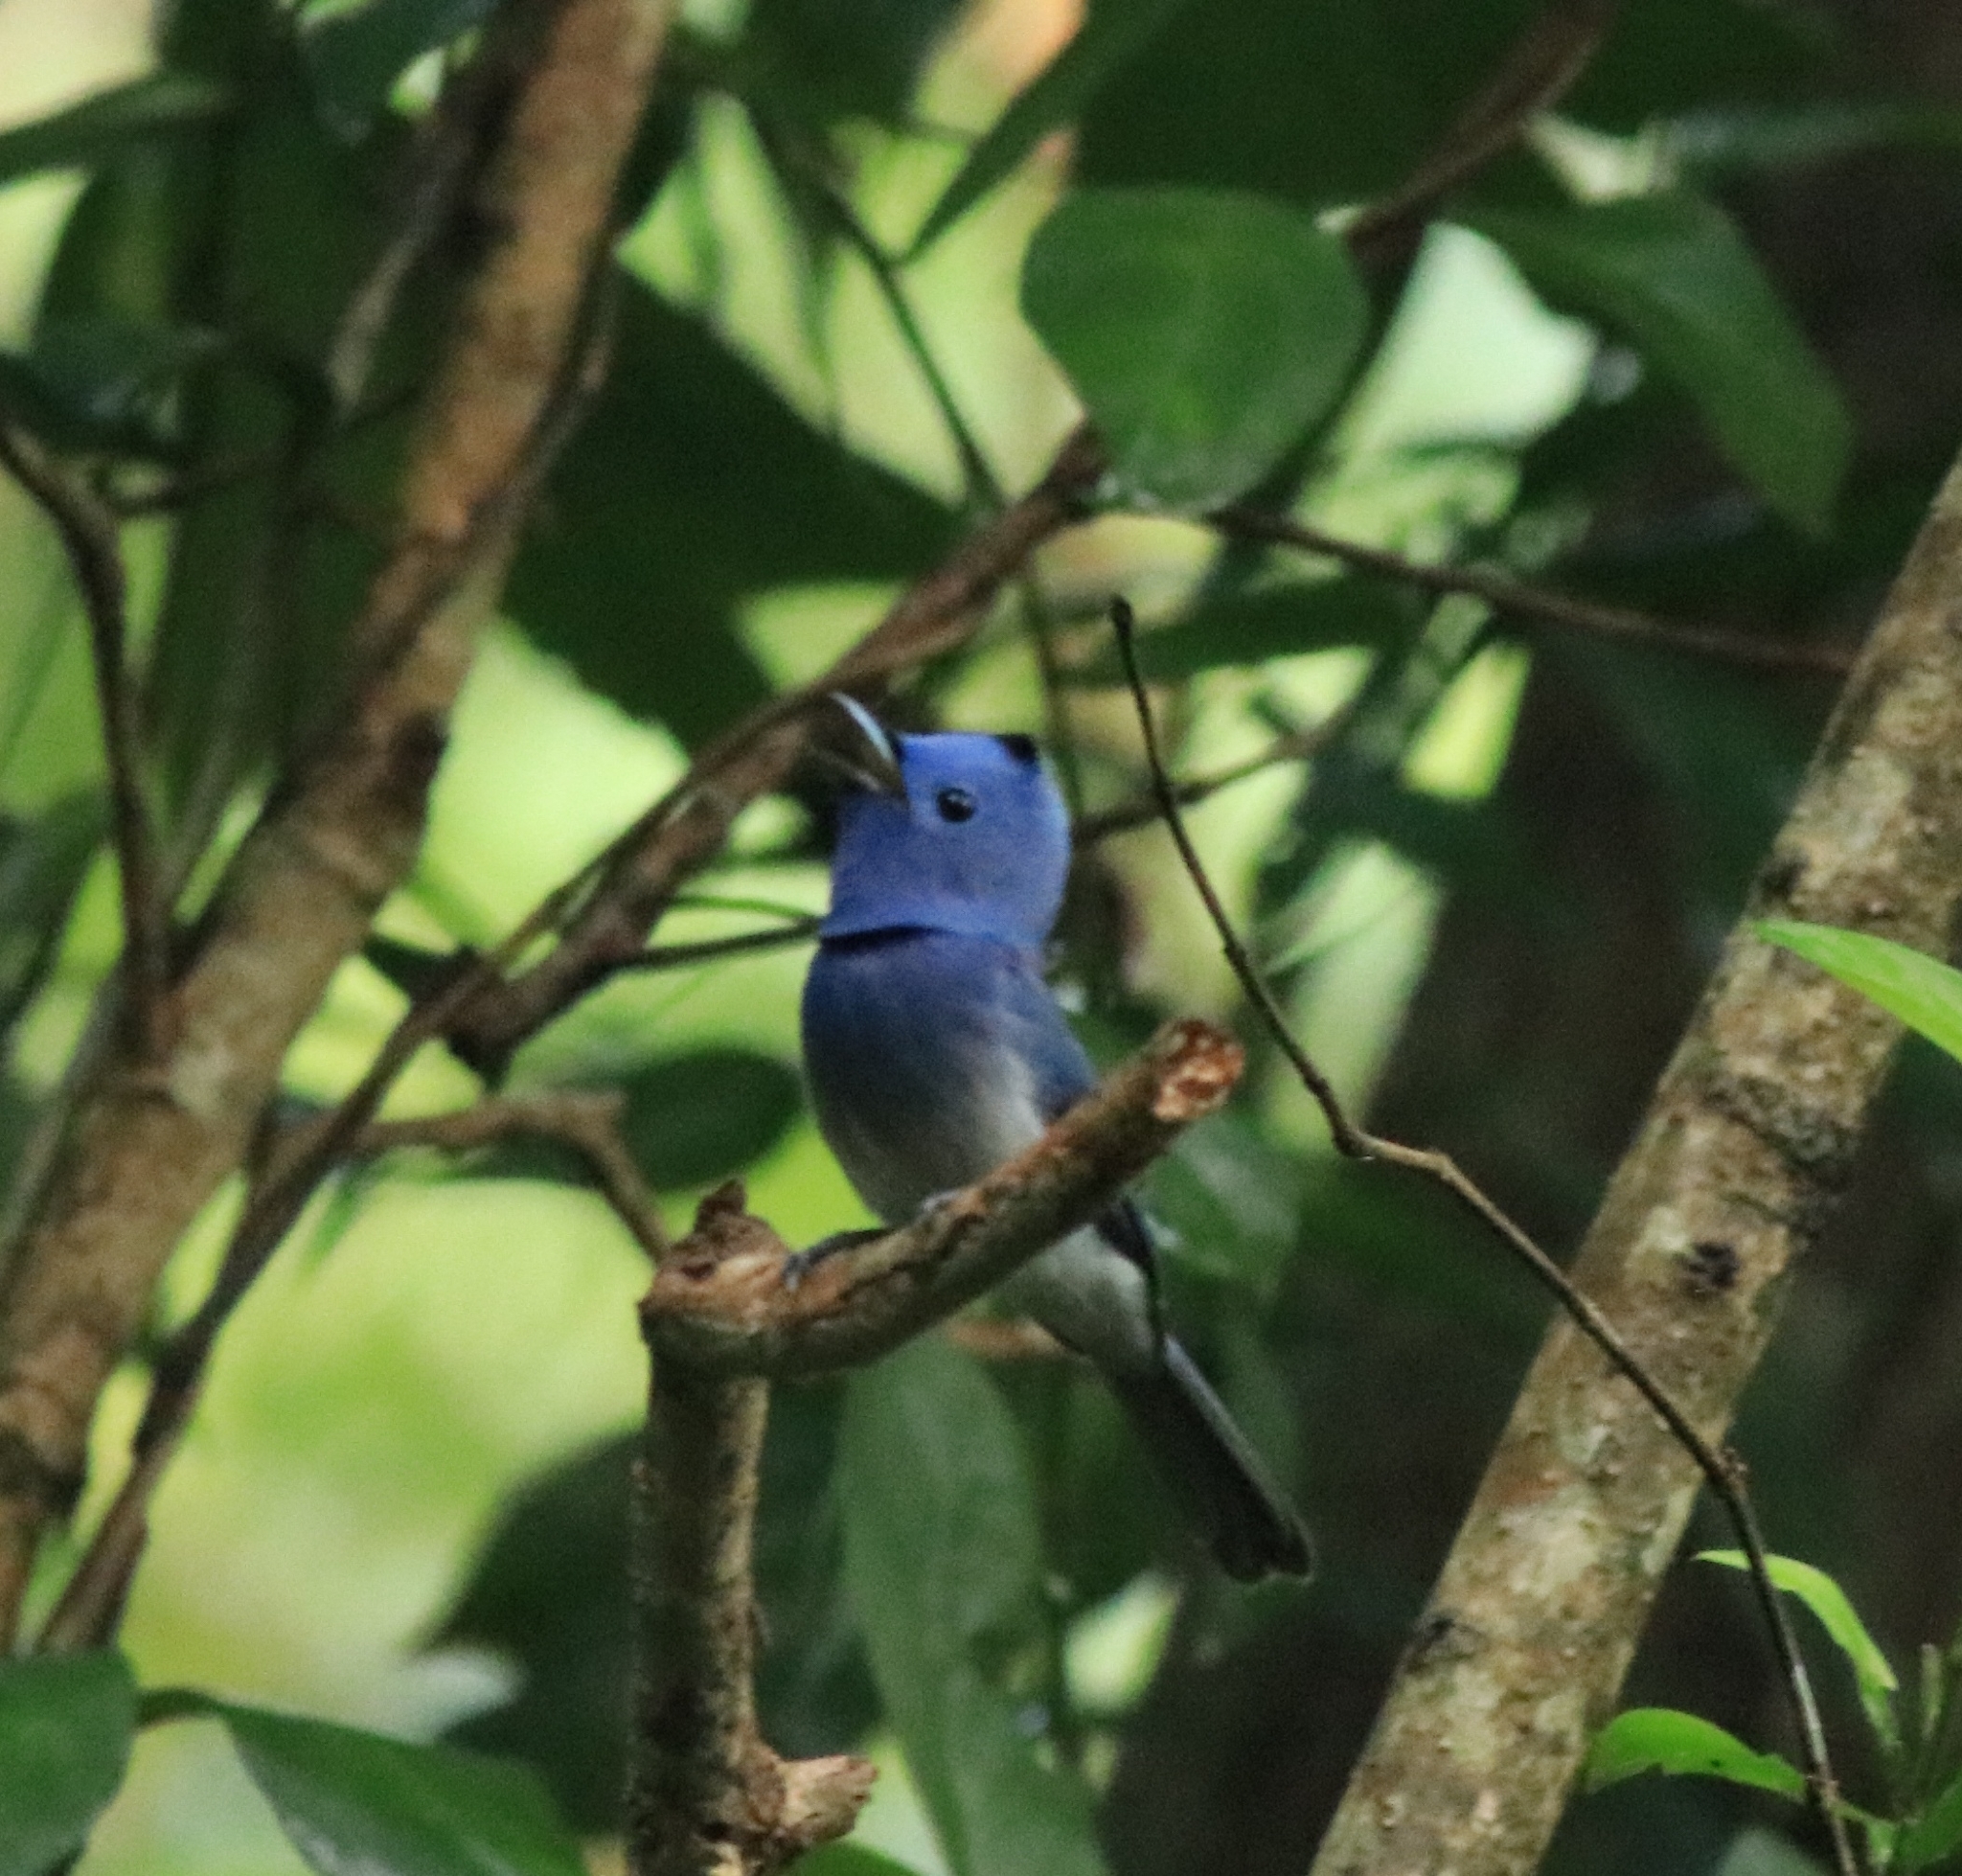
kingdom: Animalia
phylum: Chordata
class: Aves
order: Passeriformes
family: Monarchidae
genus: Hypothymis
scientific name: Hypothymis azurea
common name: Black-naped monarch
